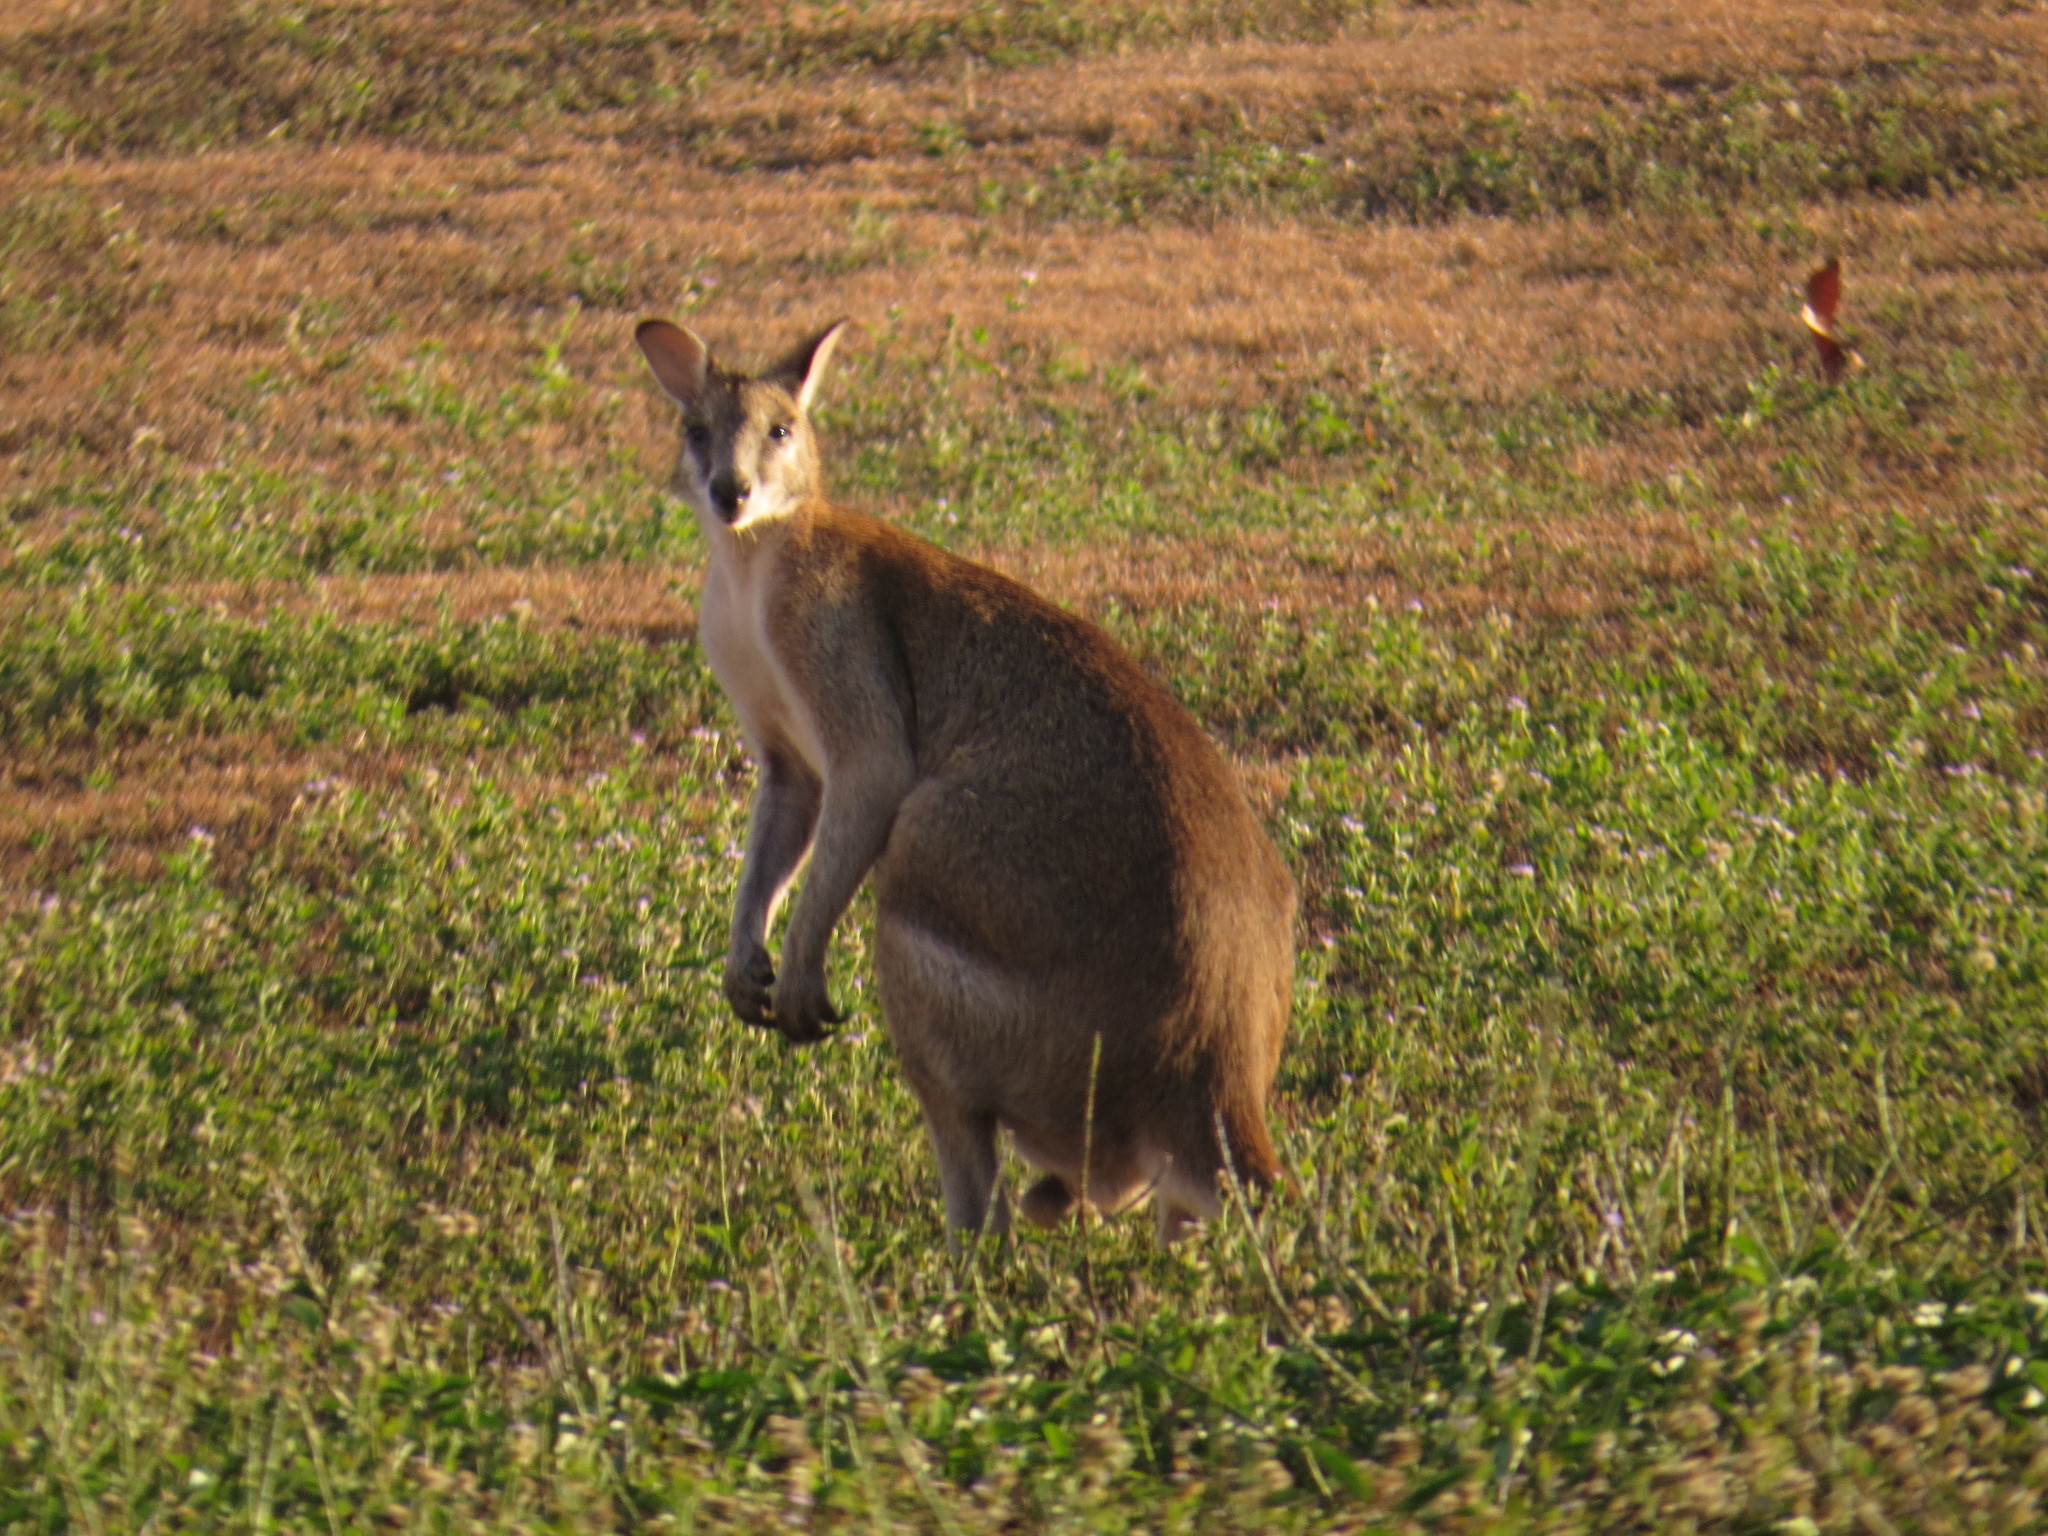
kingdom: Animalia
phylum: Chordata
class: Mammalia
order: Diprotodontia
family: Macropodidae
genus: Macropus
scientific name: Macropus agilis
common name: Agile wallaby
